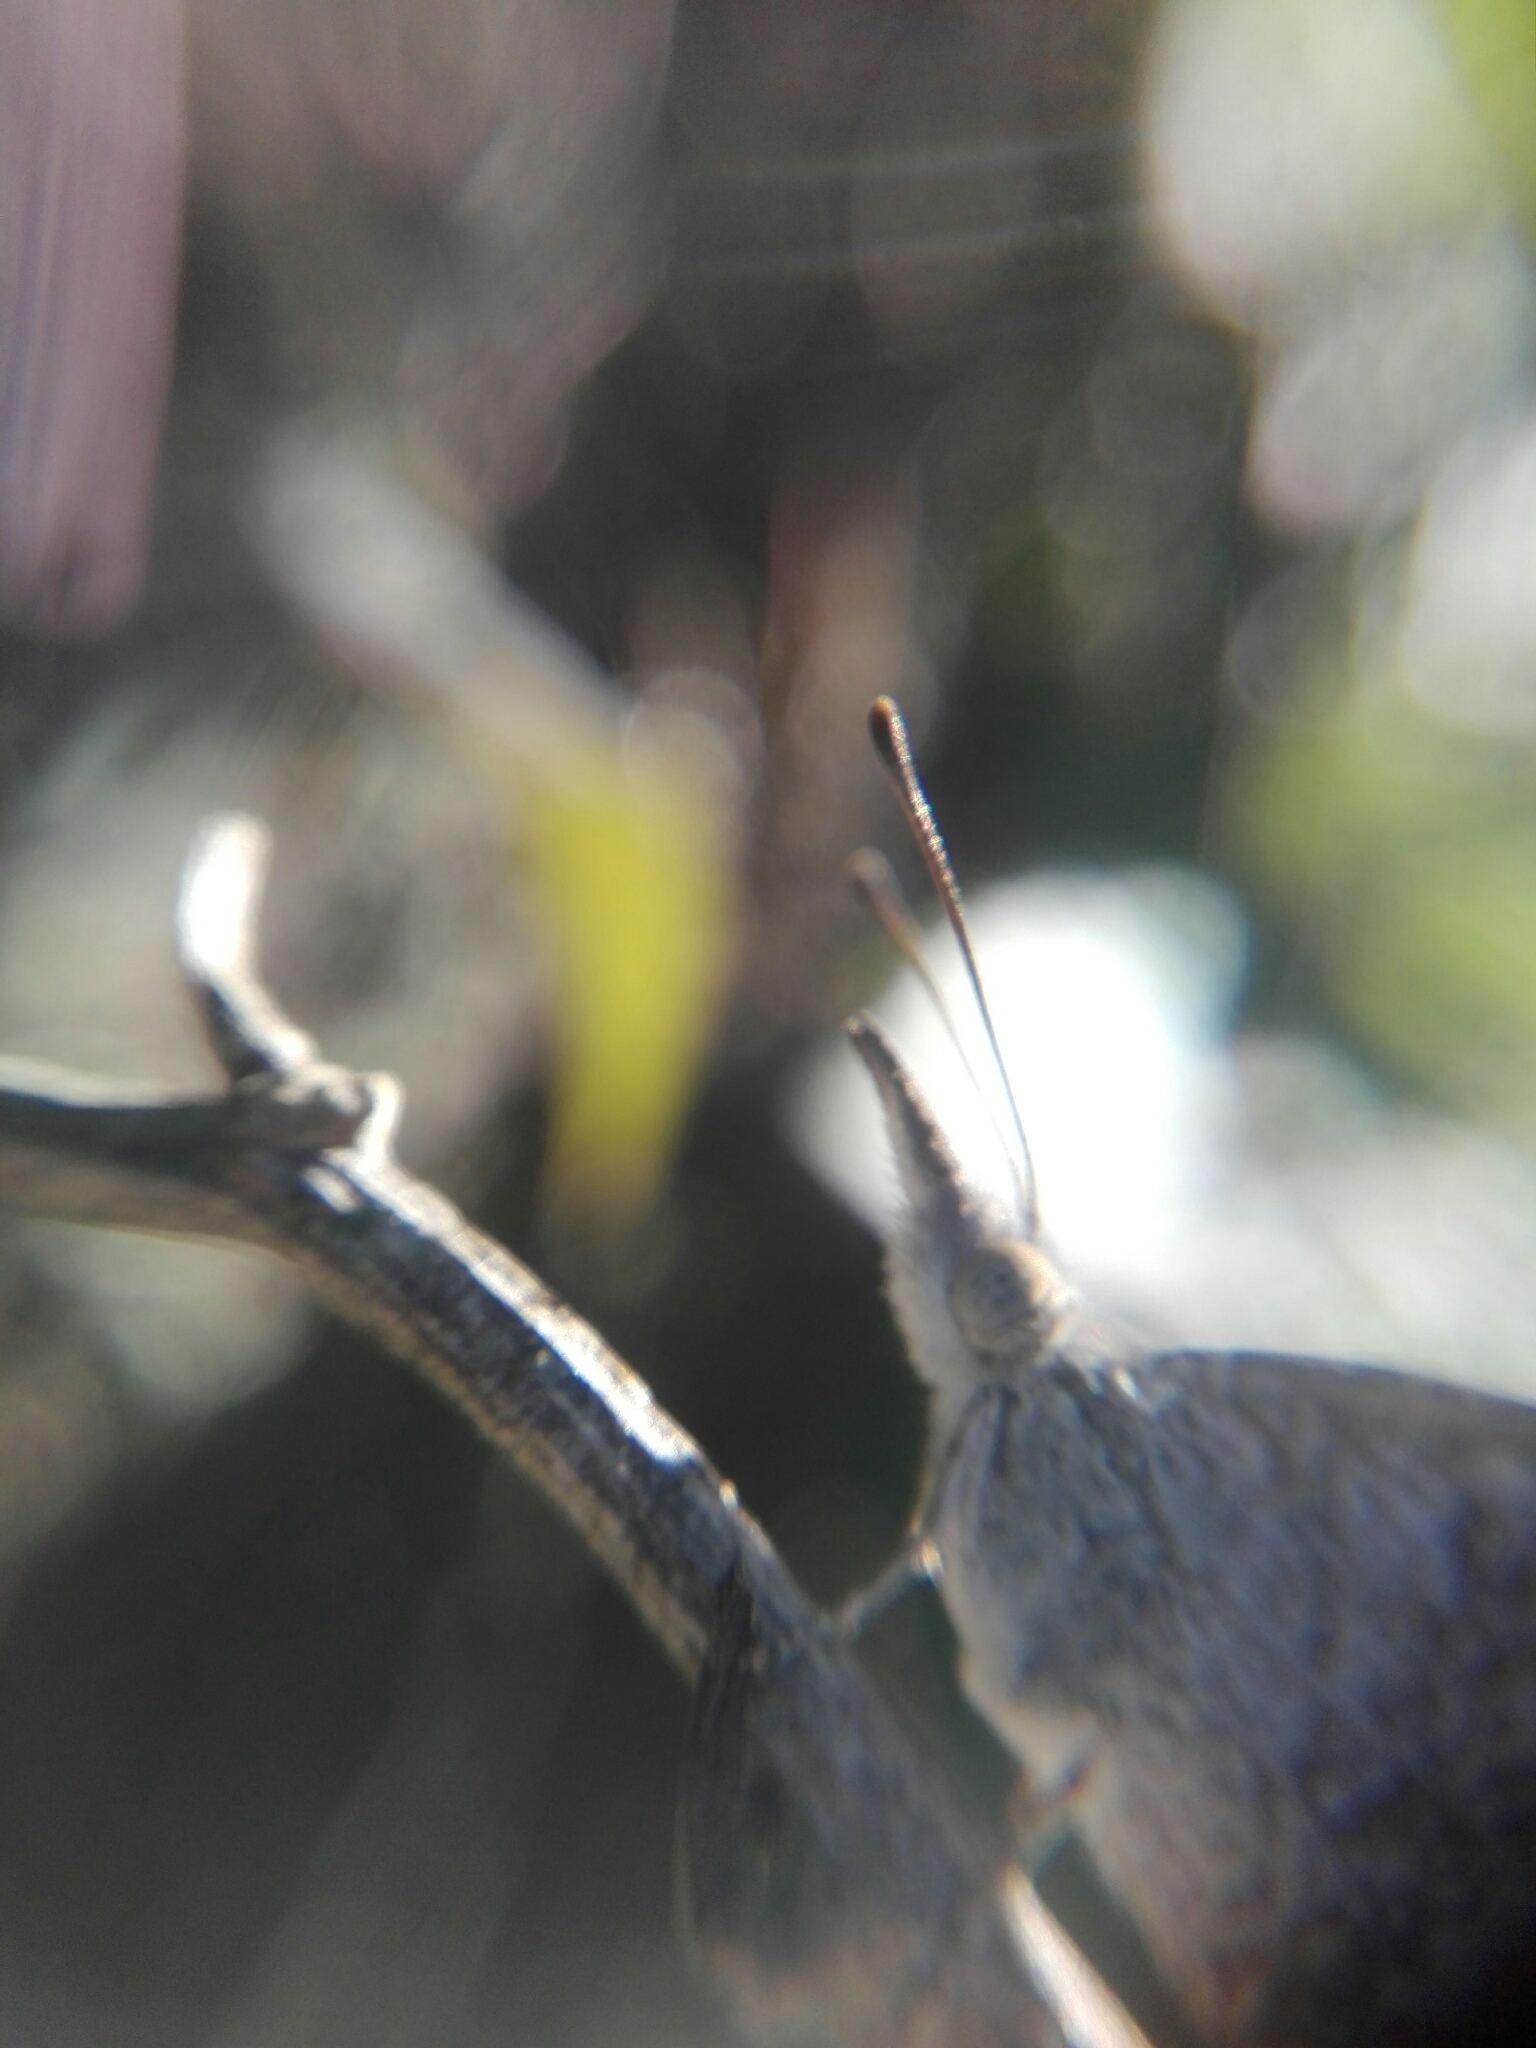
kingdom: Animalia
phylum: Arthropoda
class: Insecta
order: Lepidoptera
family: Nymphalidae
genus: Libytheana
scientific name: Libytheana carinenta
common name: American snout
